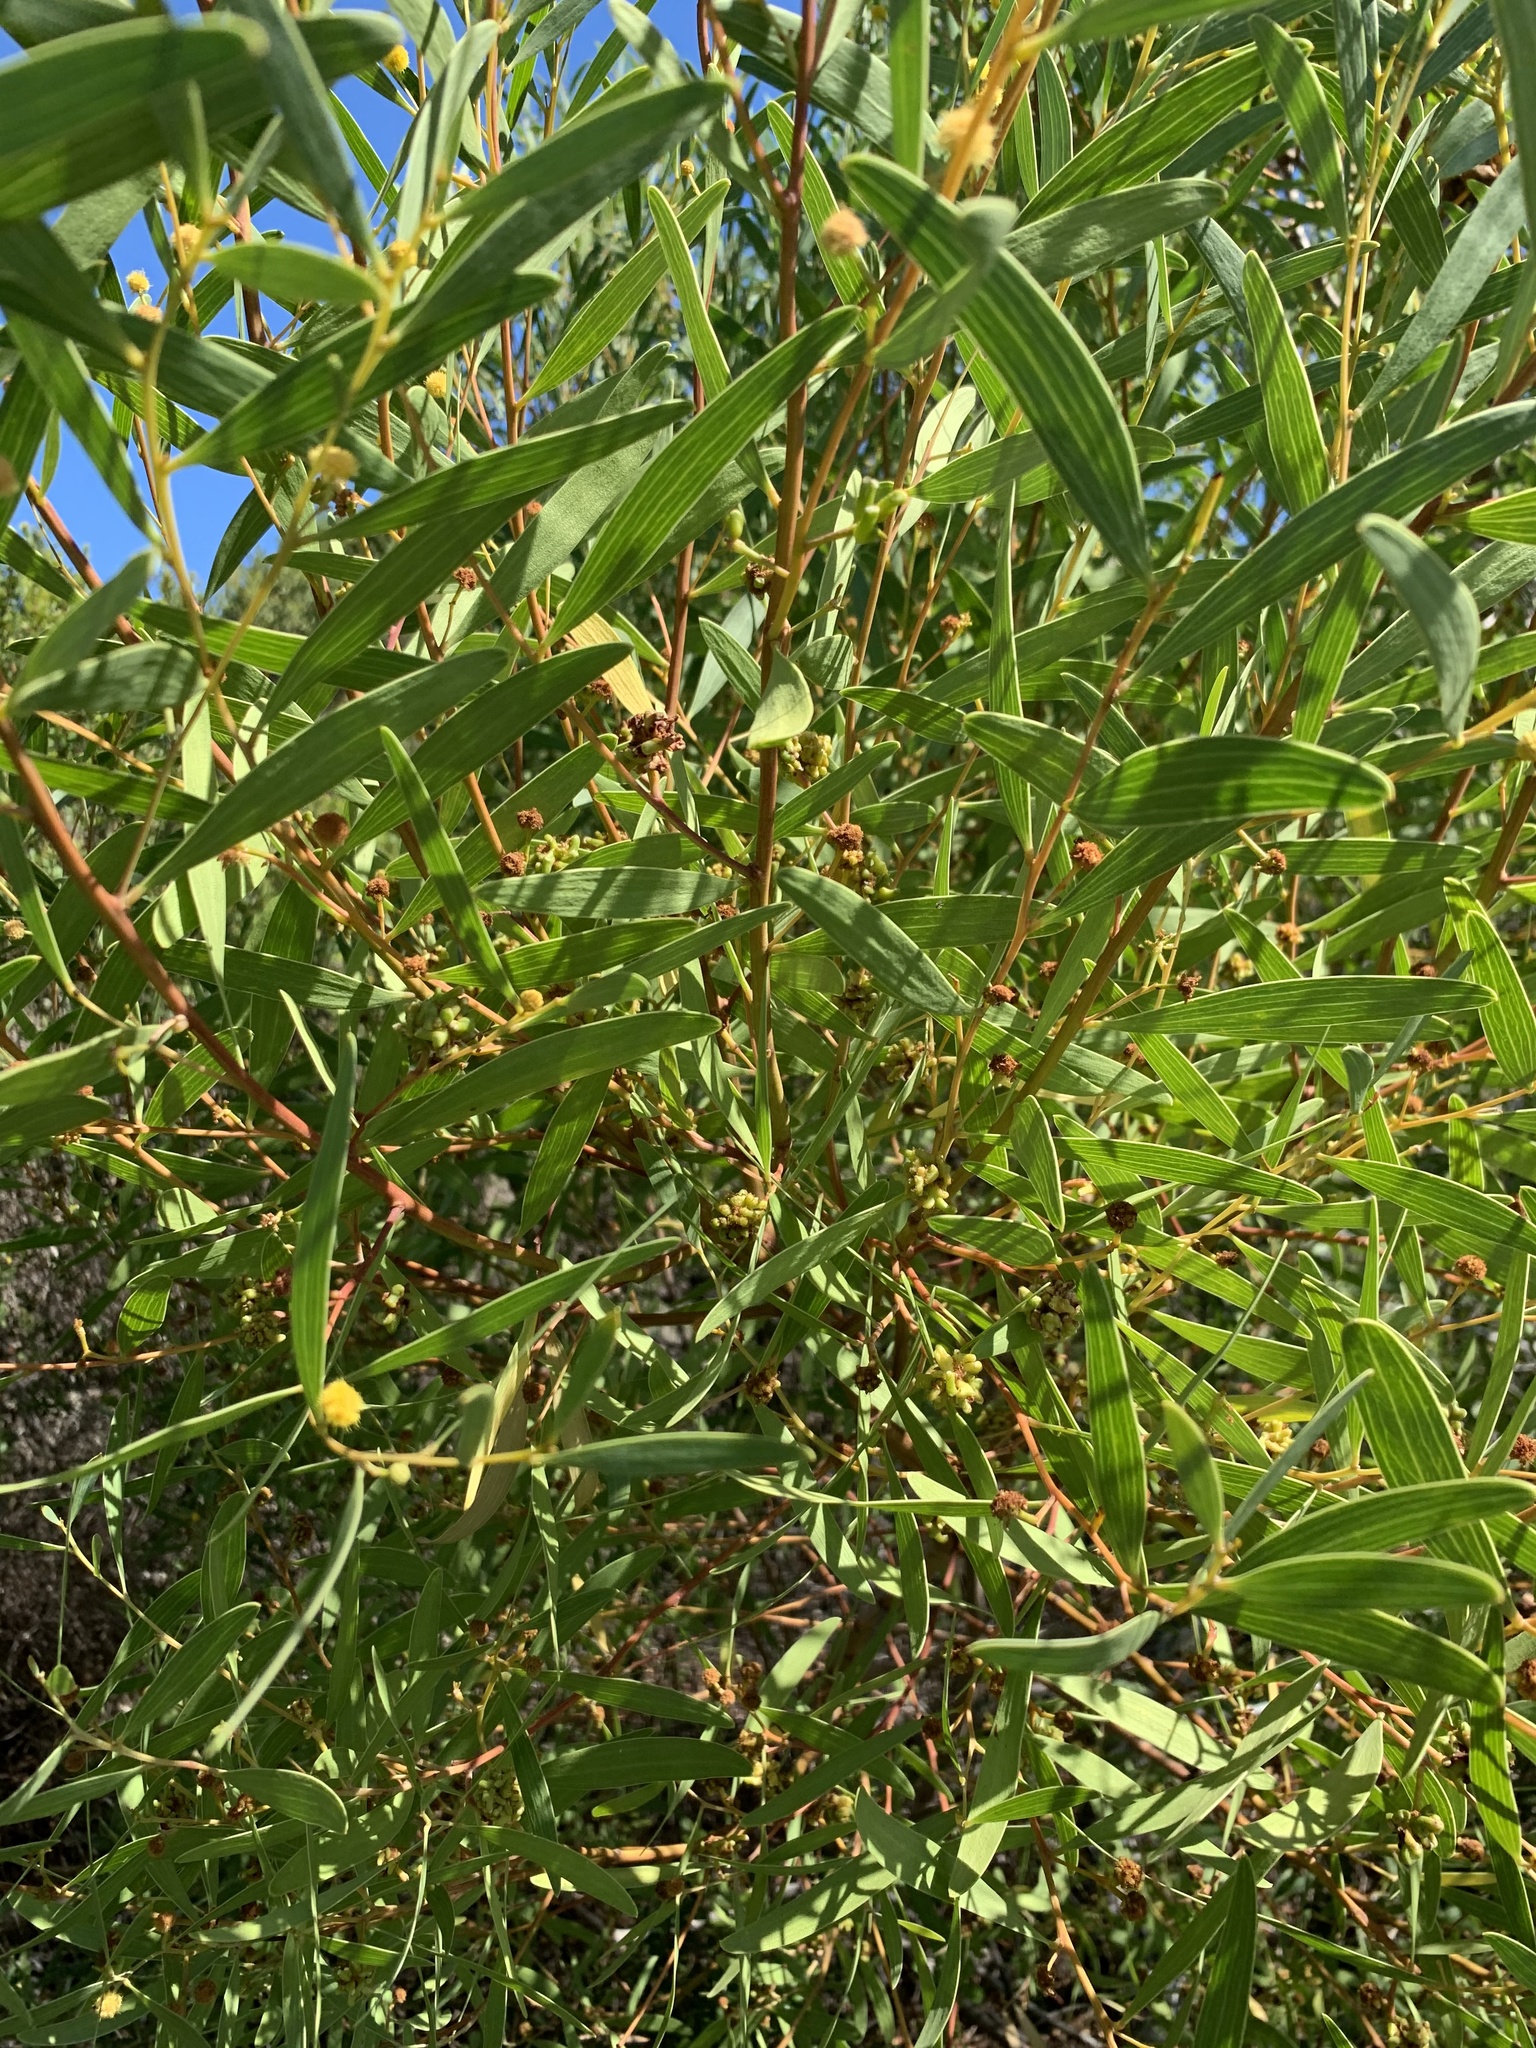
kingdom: Plantae
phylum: Tracheophyta
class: Magnoliopsida
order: Fabales
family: Fabaceae
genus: Acacia
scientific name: Acacia cyclops
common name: Coastal wattle
